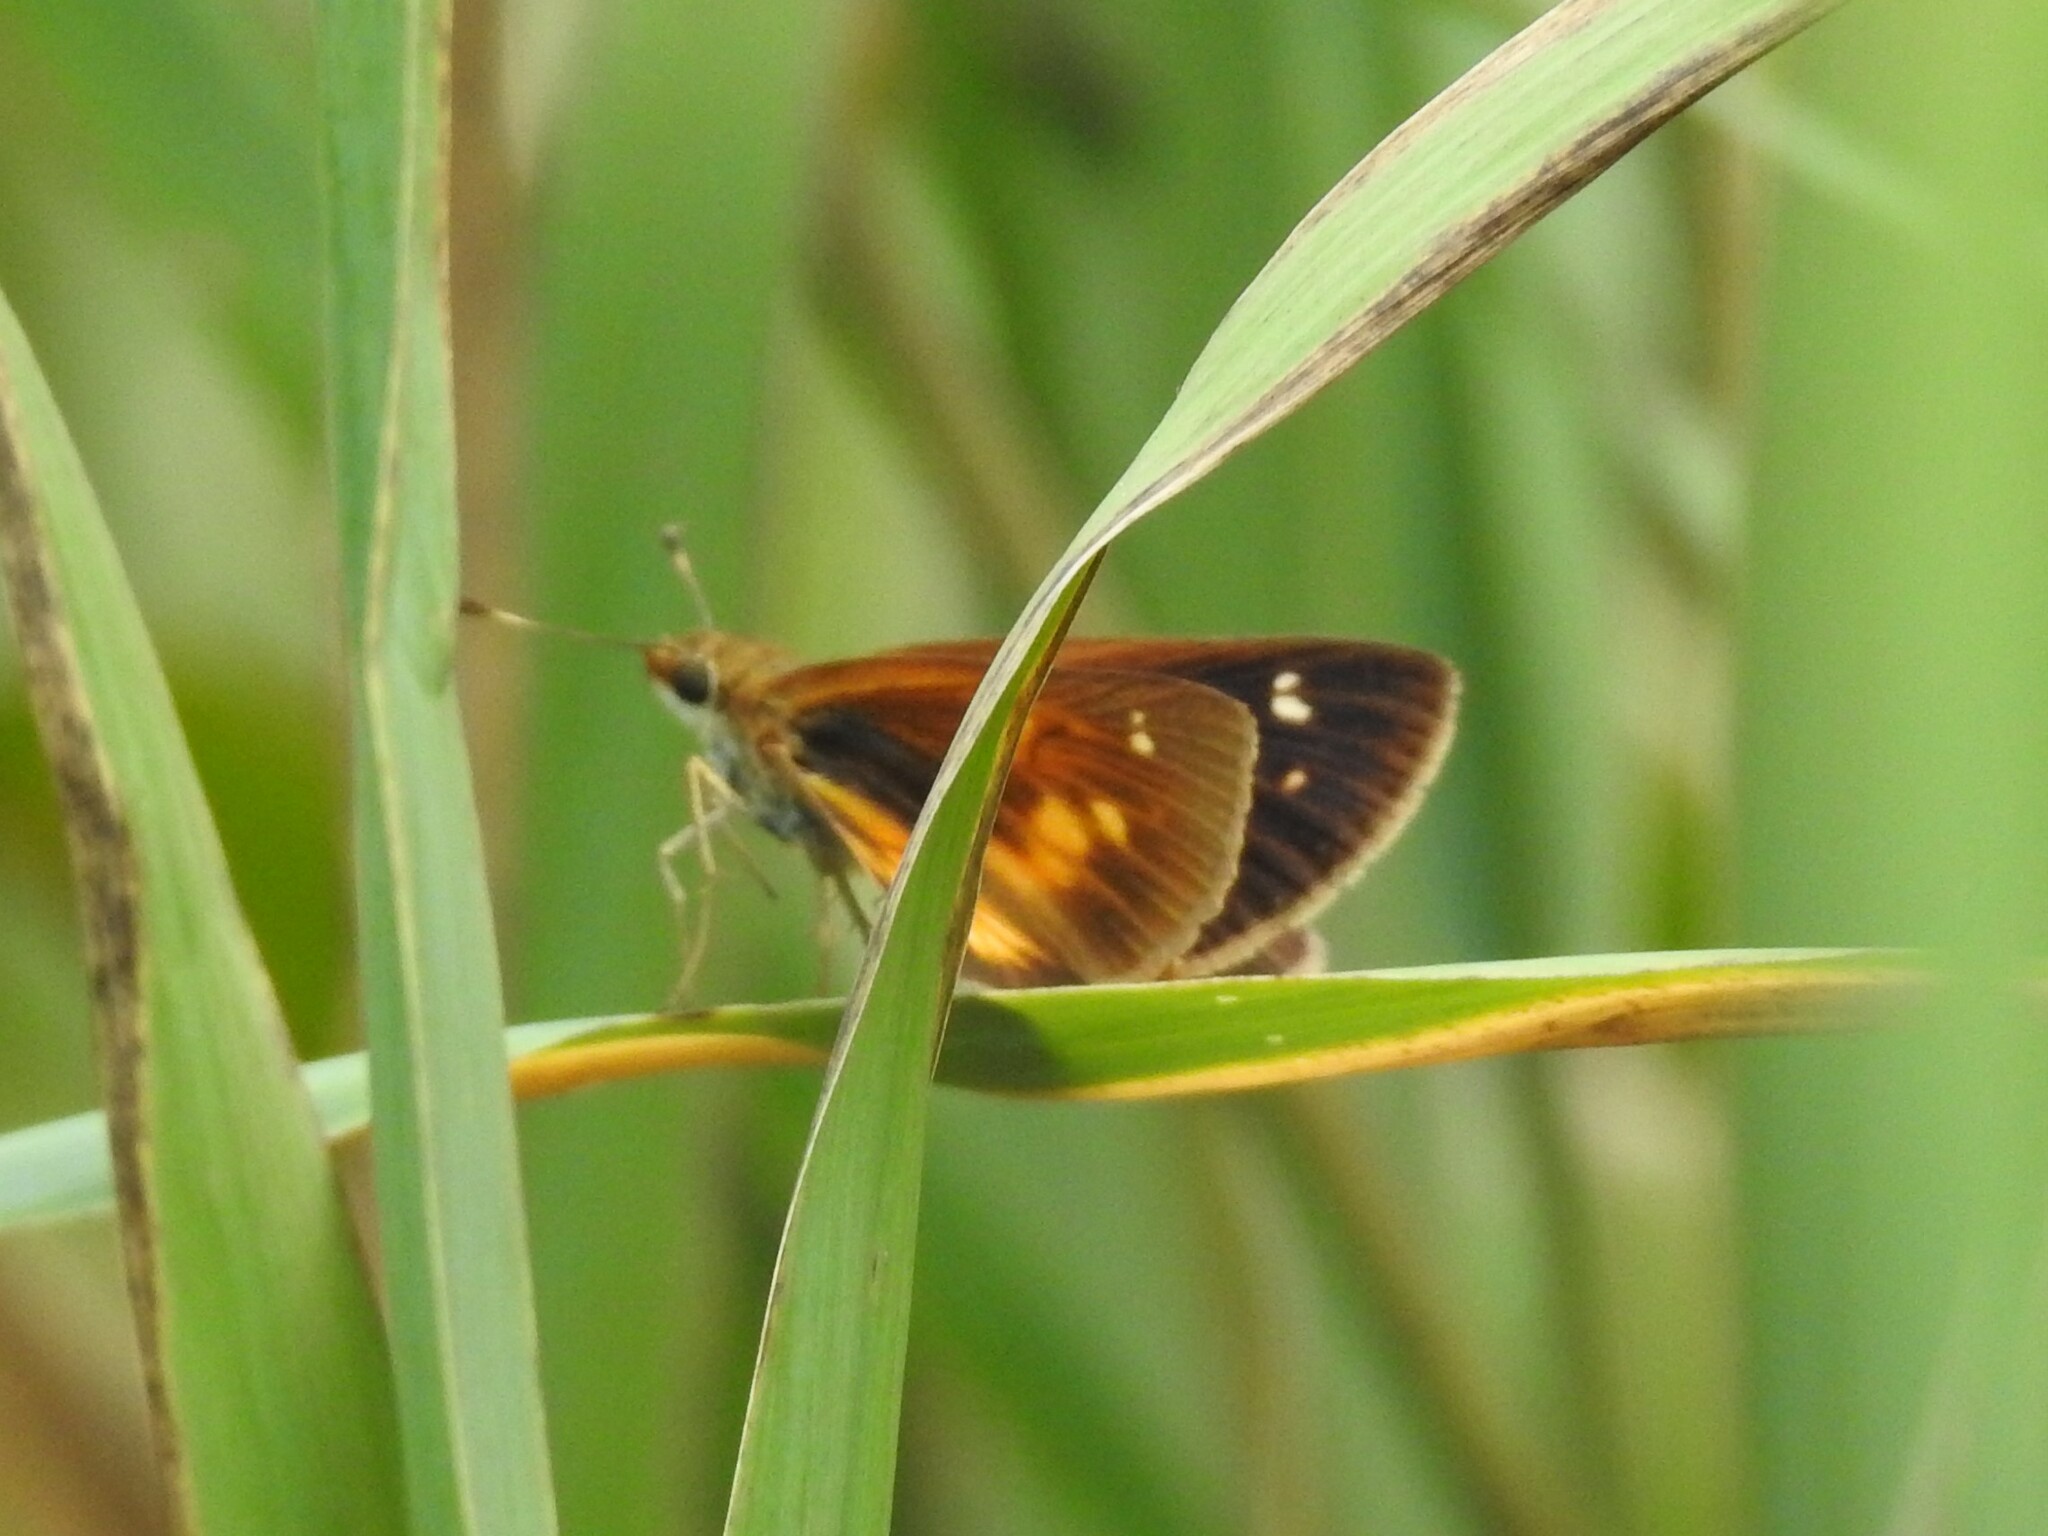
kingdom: Animalia
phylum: Arthropoda
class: Insecta
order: Lepidoptera
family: Hesperiidae
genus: Poanes
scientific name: Poanes viator
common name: Broad-winged skipper
